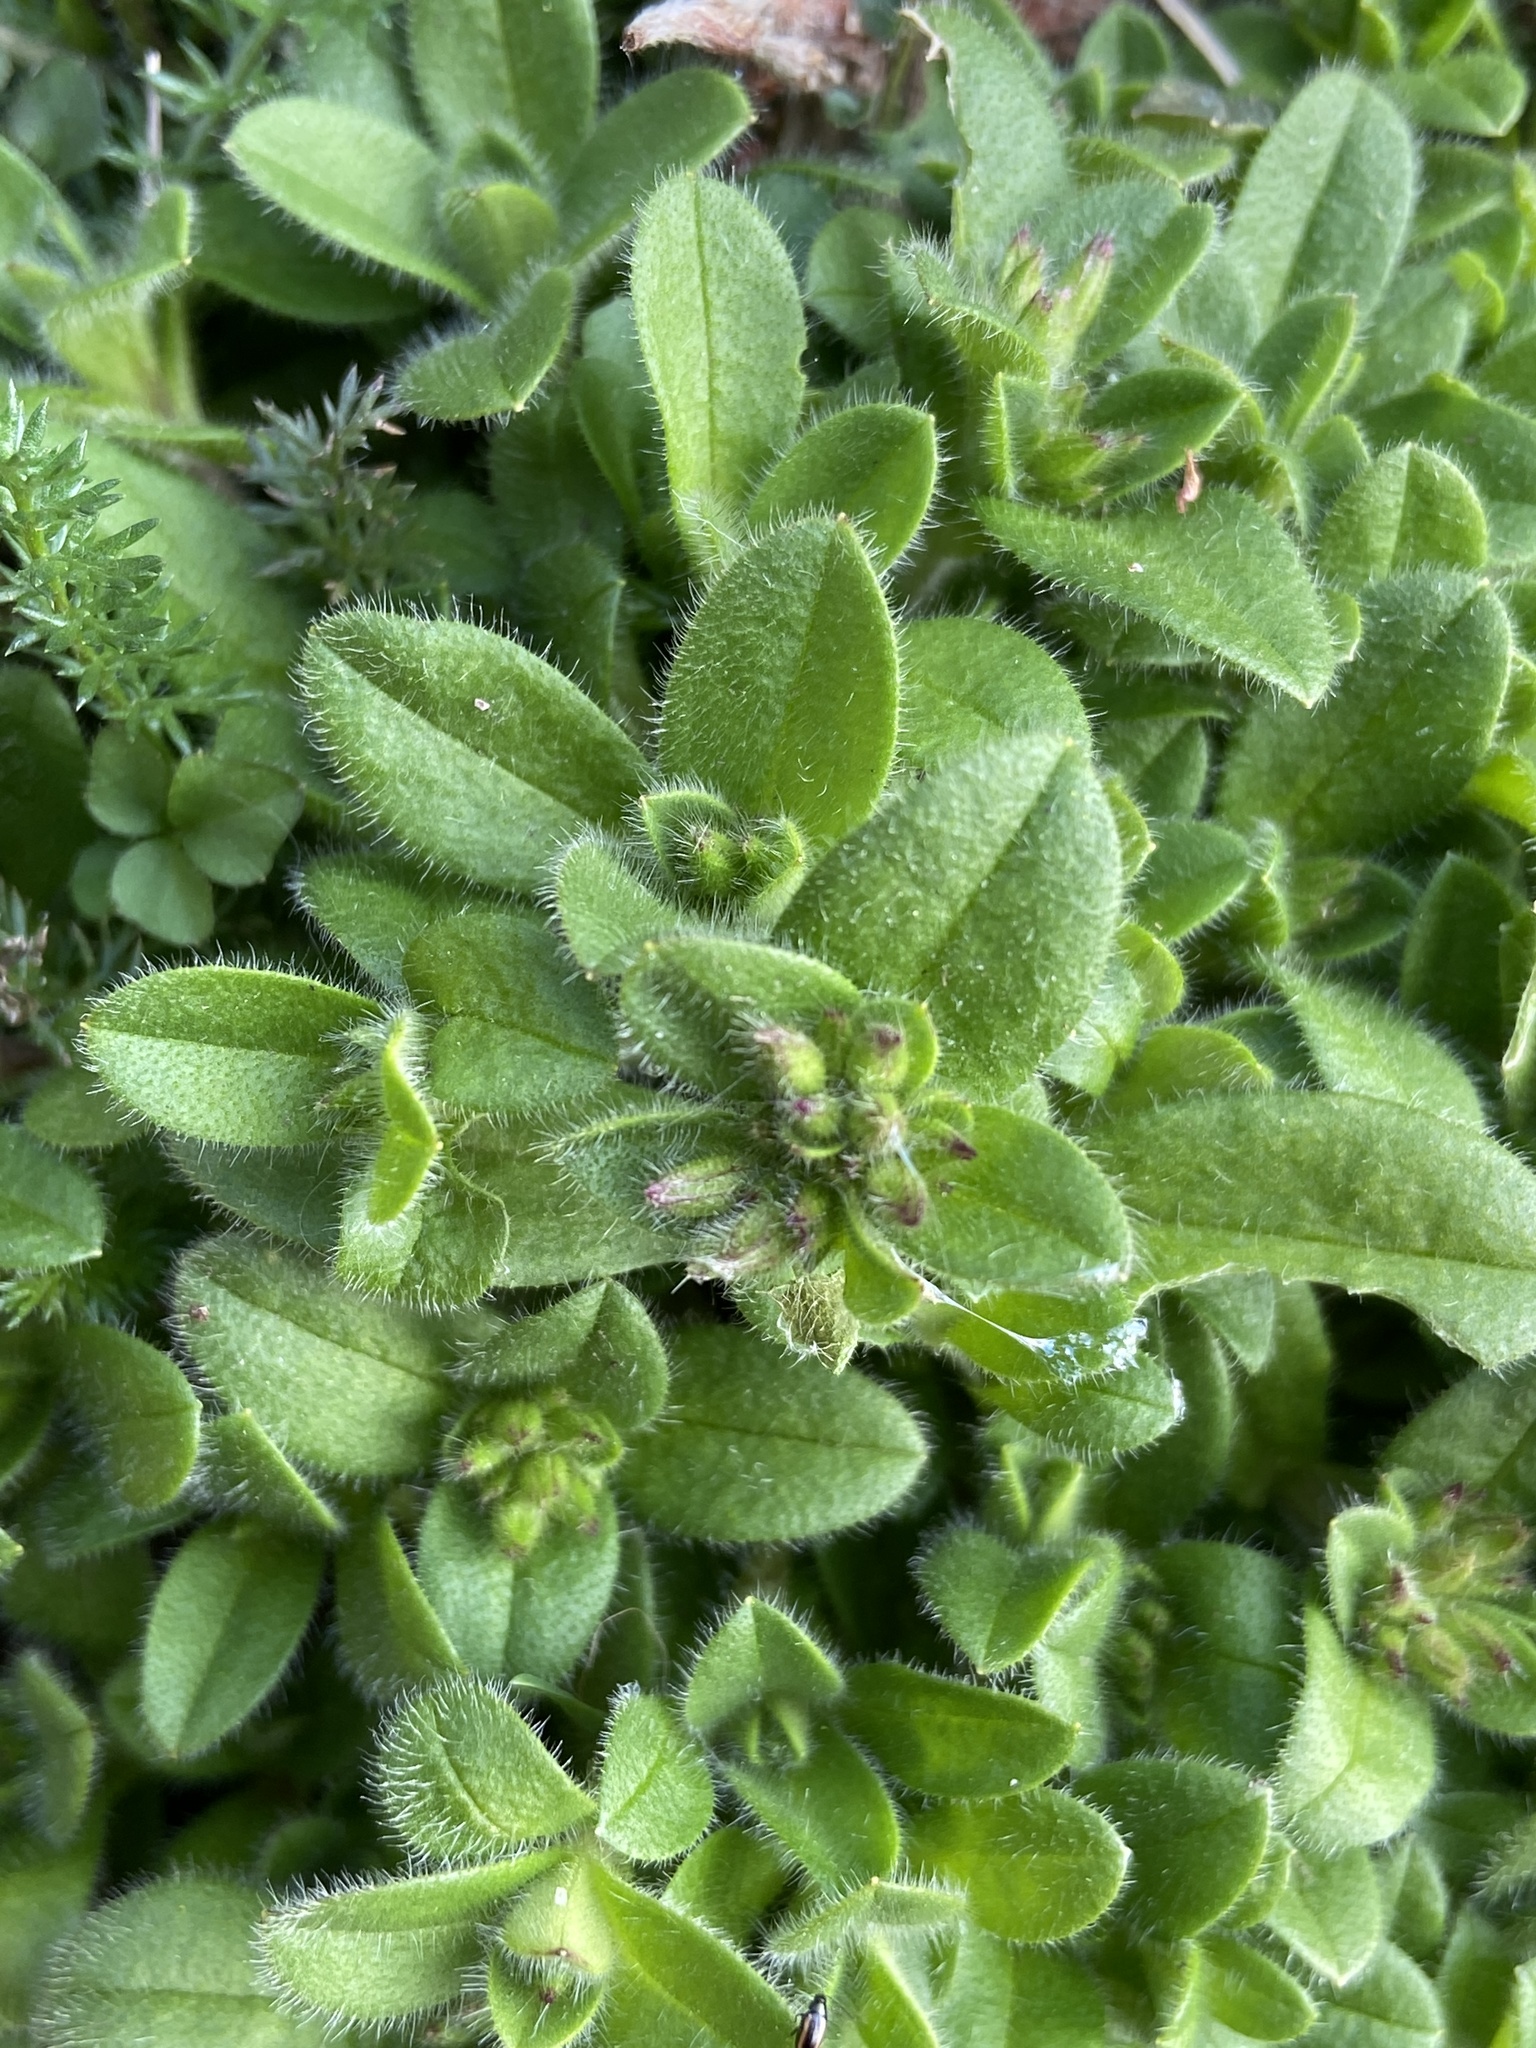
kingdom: Plantae
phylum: Tracheophyta
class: Magnoliopsida
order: Caryophyllales
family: Caryophyllaceae
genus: Cerastium
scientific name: Cerastium glomeratum
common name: Sticky chickweed
